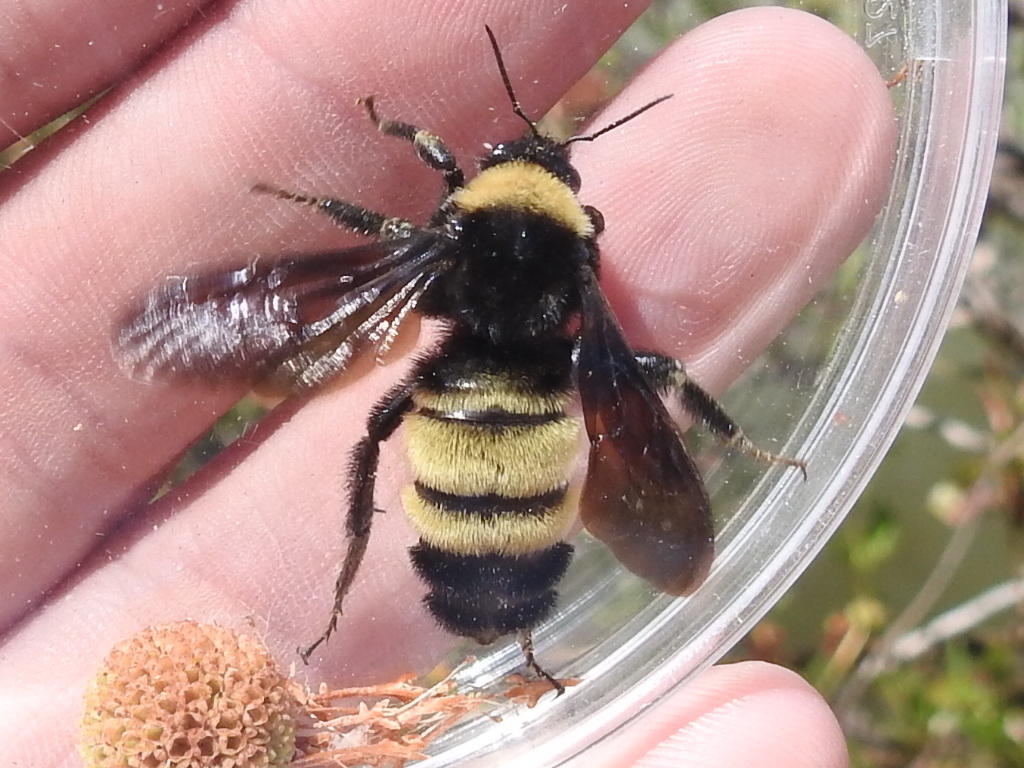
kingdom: Animalia
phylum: Arthropoda
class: Insecta
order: Hymenoptera
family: Apidae
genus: Bombus
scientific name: Bombus pensylvanicus
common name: Bumble bee
